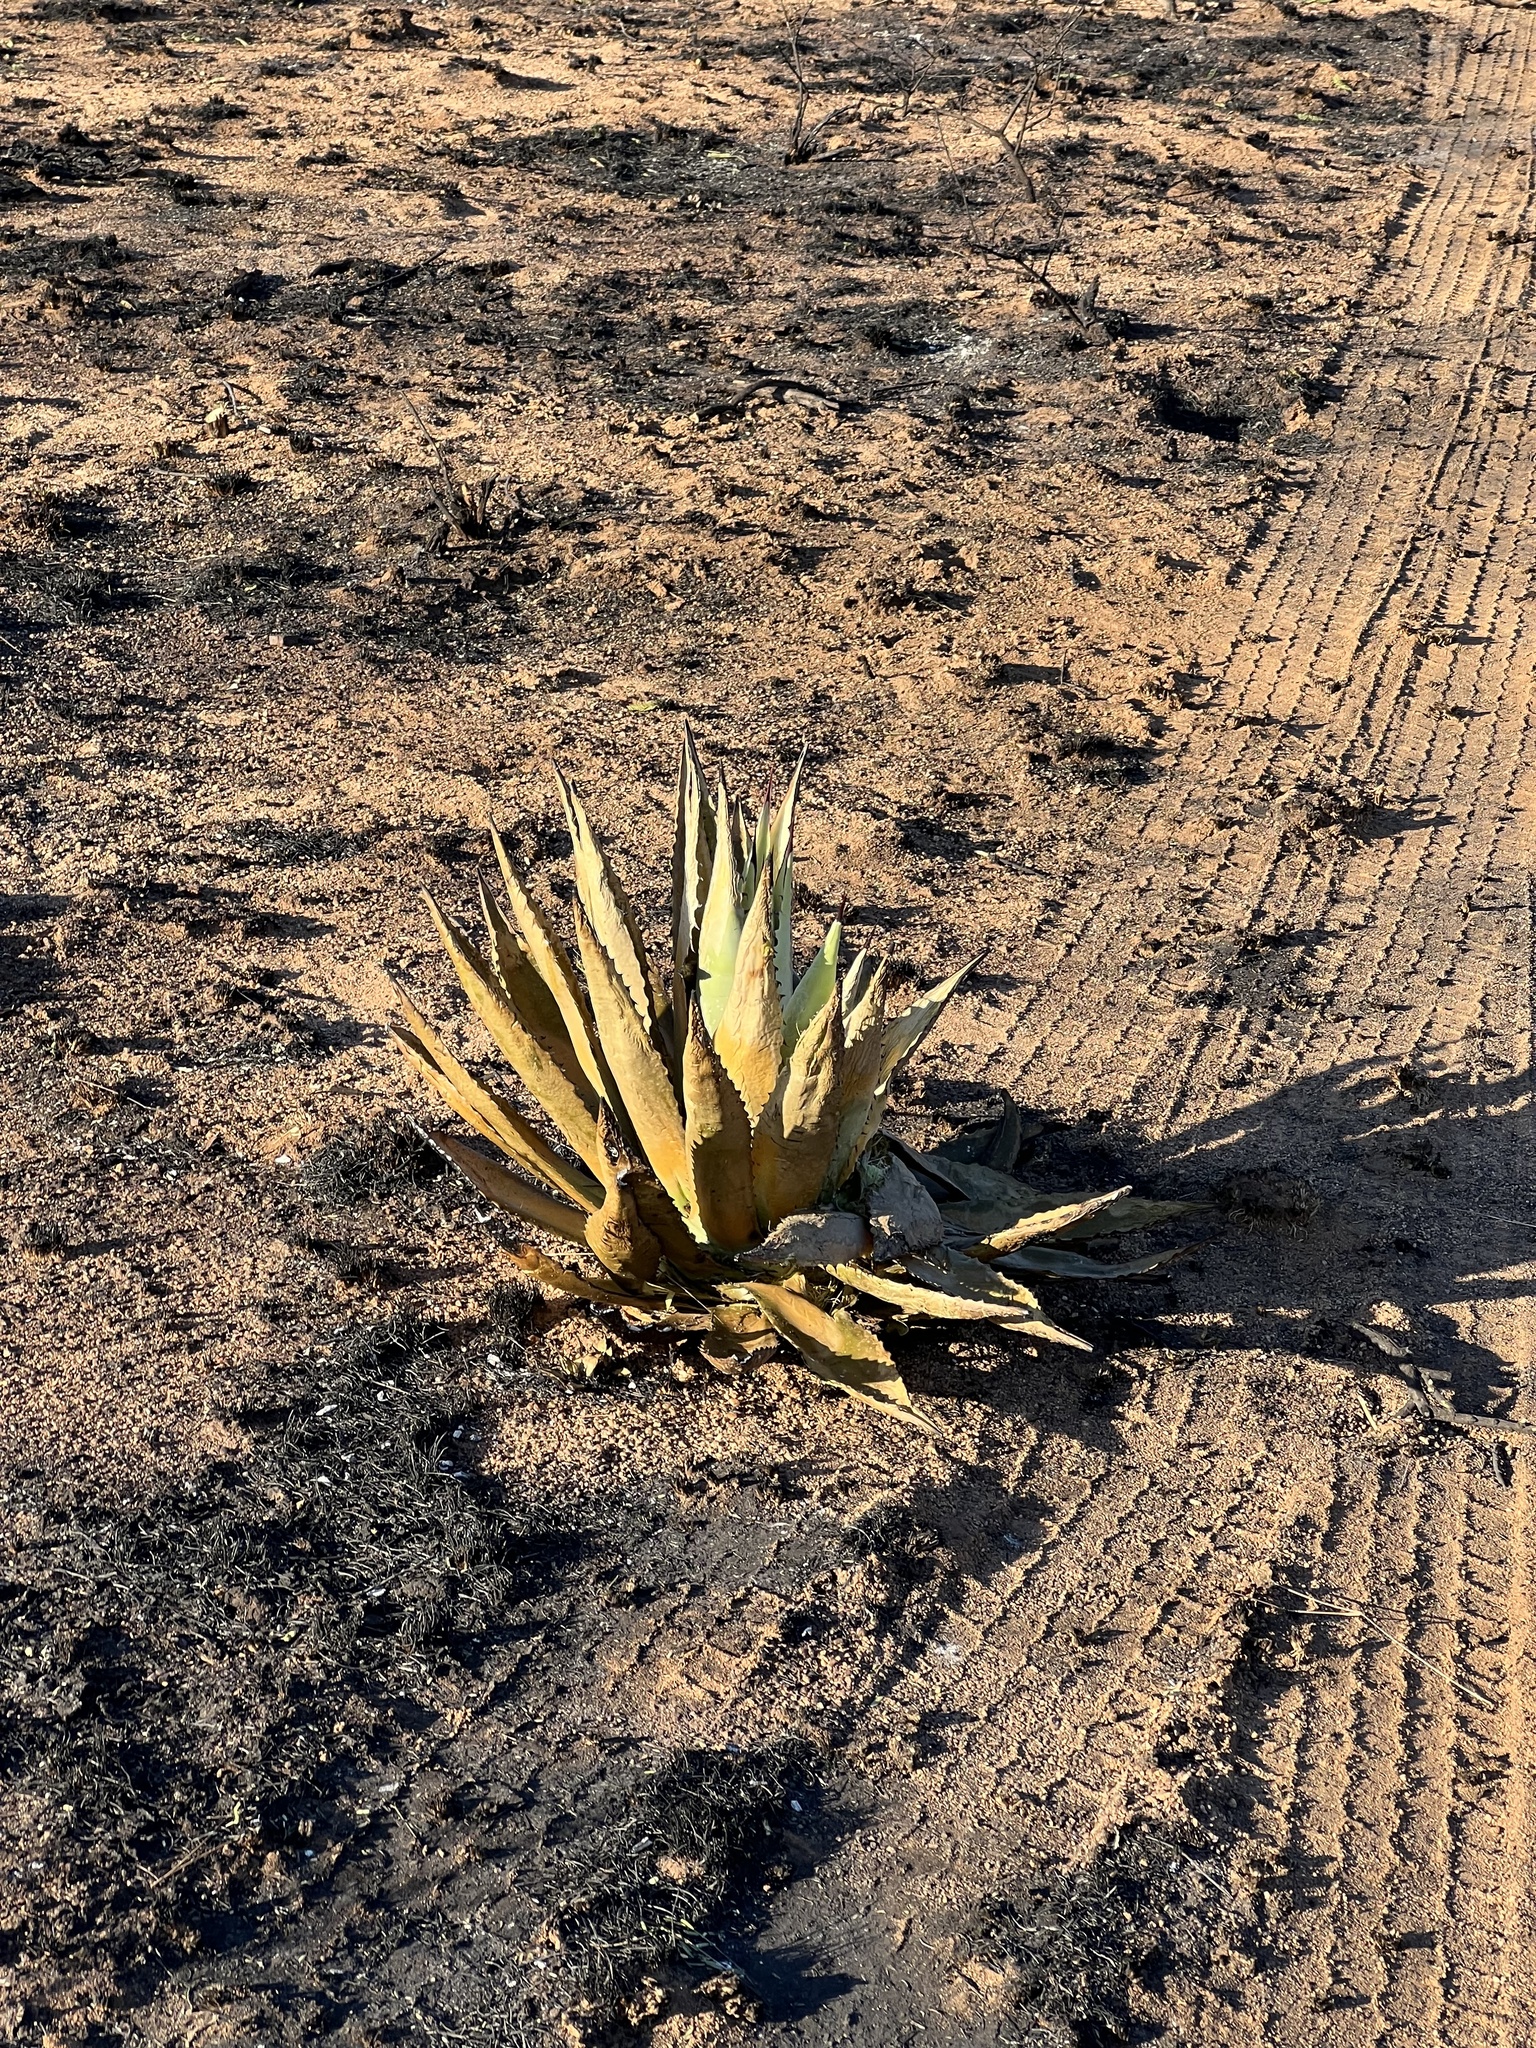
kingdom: Plantae
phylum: Tracheophyta
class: Liliopsida
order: Asparagales
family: Asparagaceae
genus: Agave
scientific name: Agave palmeri
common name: Palmer agave
